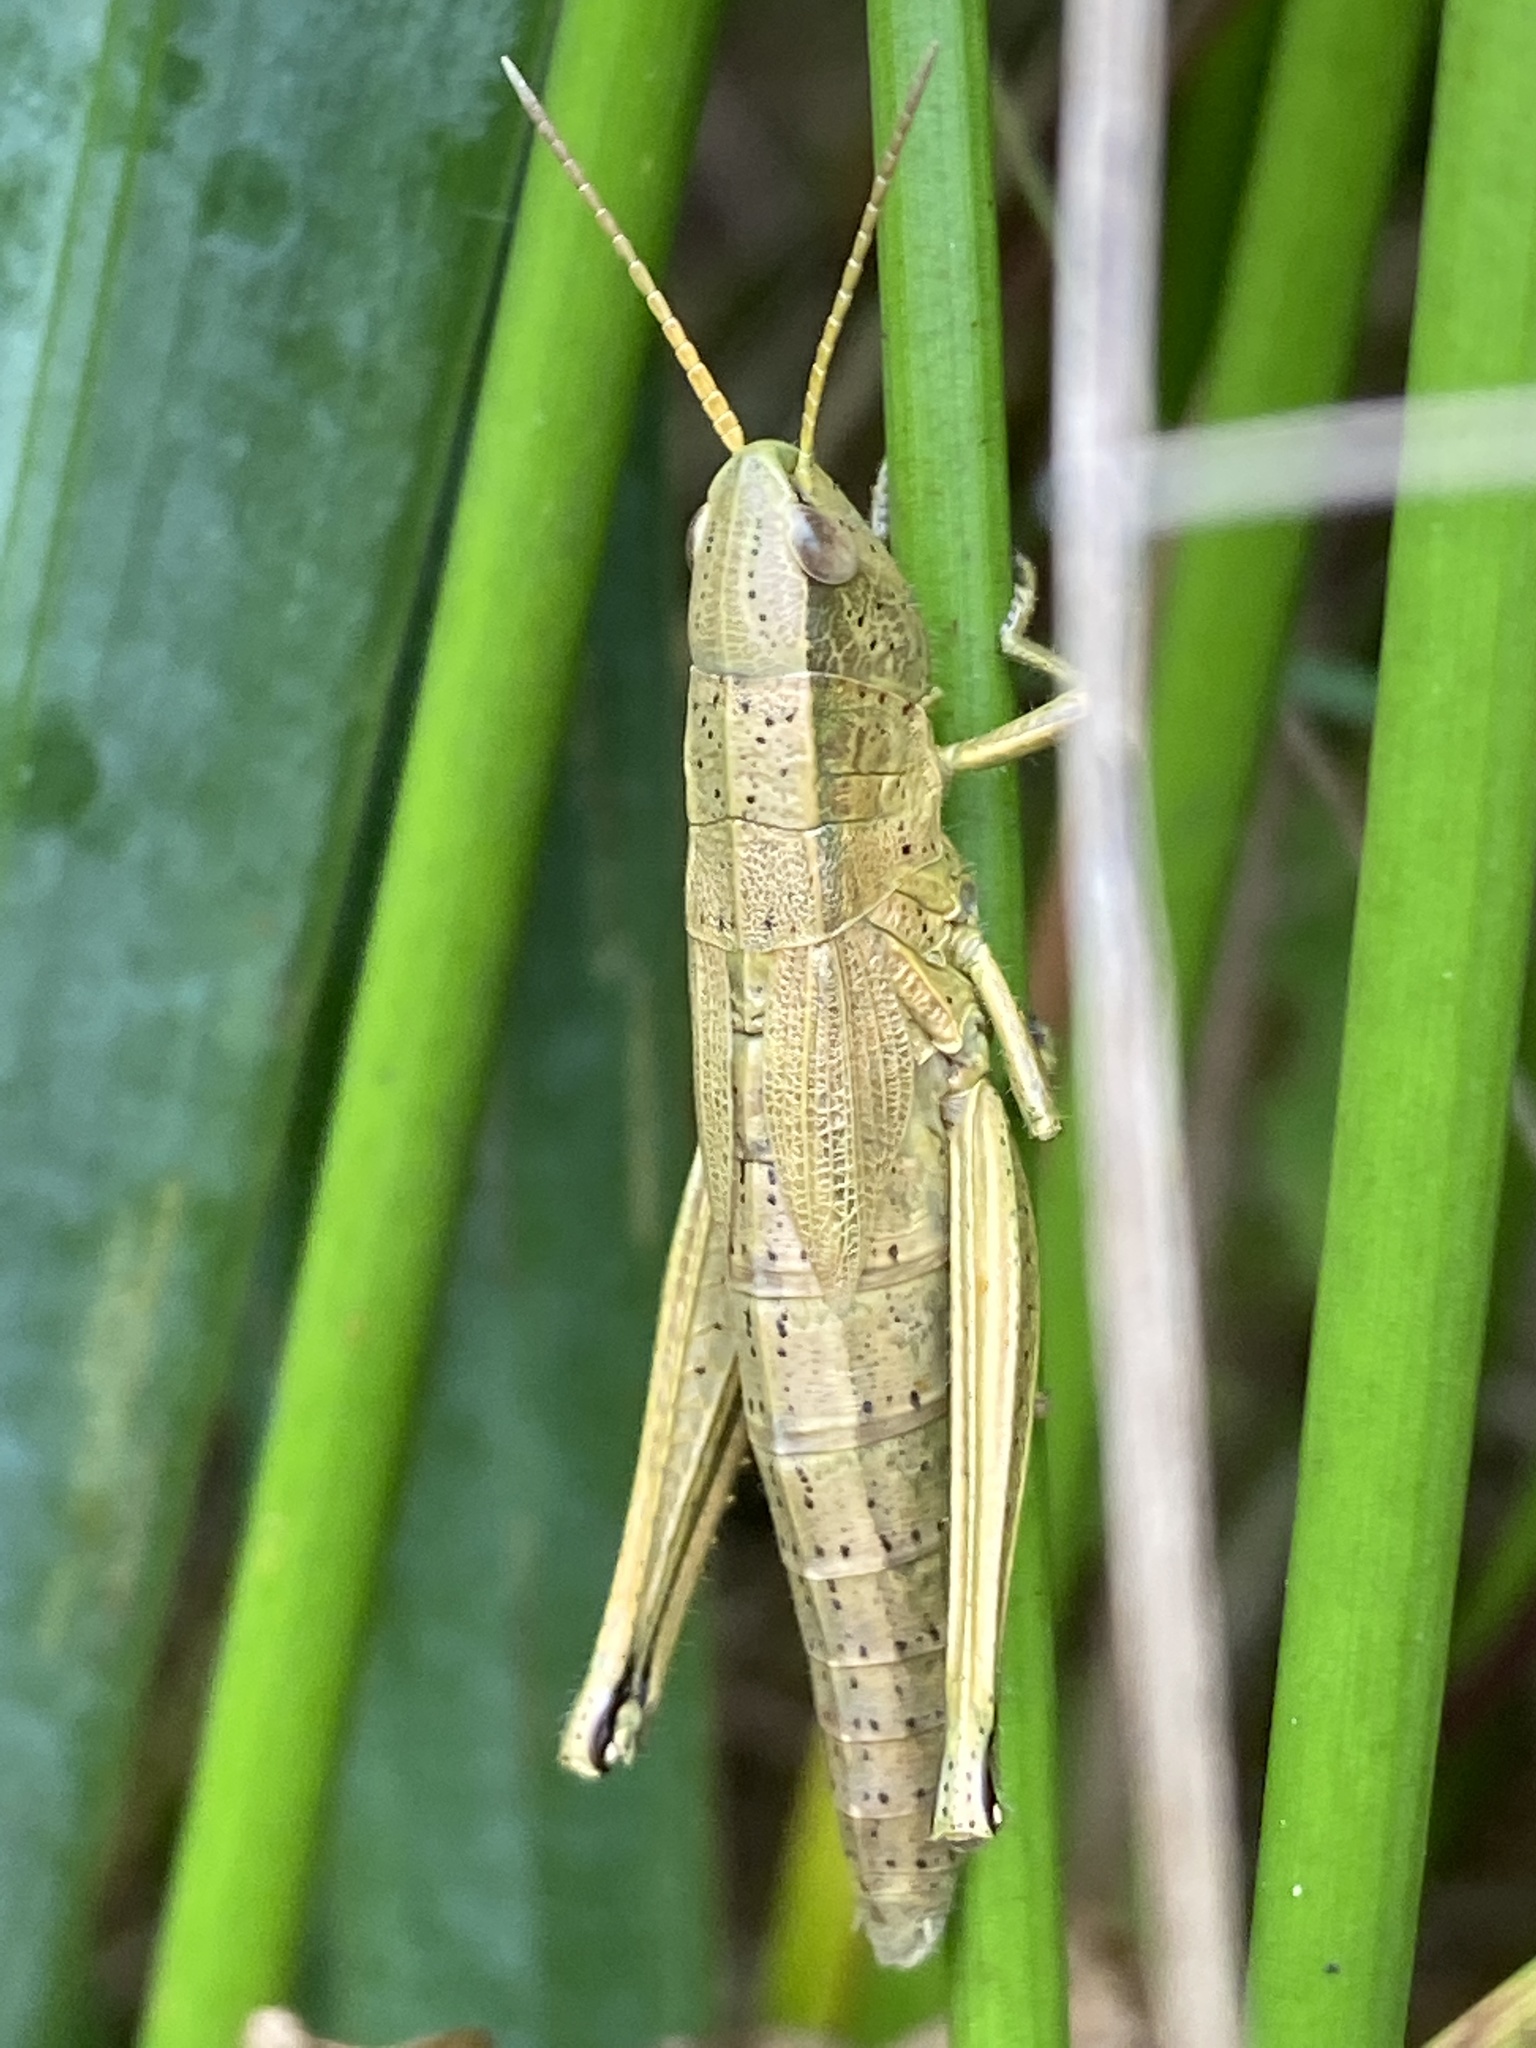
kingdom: Animalia
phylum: Arthropoda
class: Insecta
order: Orthoptera
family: Acrididae
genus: Chrysochraon
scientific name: Chrysochraon dispar
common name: Large gold grasshopper
